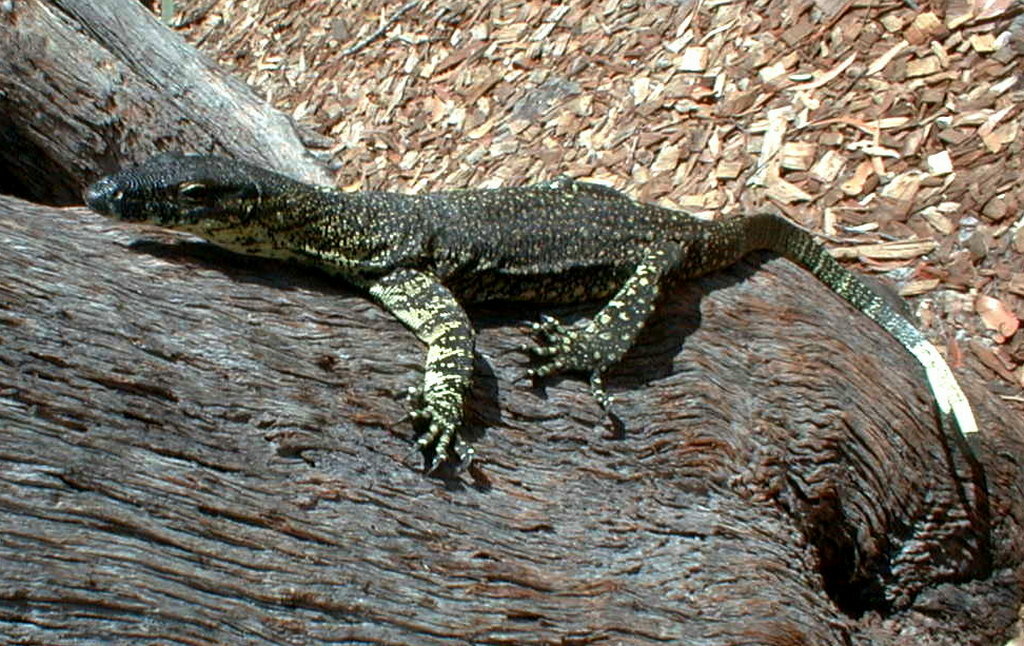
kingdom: Animalia
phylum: Chordata
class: Squamata
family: Varanidae
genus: Varanus
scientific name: Varanus varius
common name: Lace monitor
